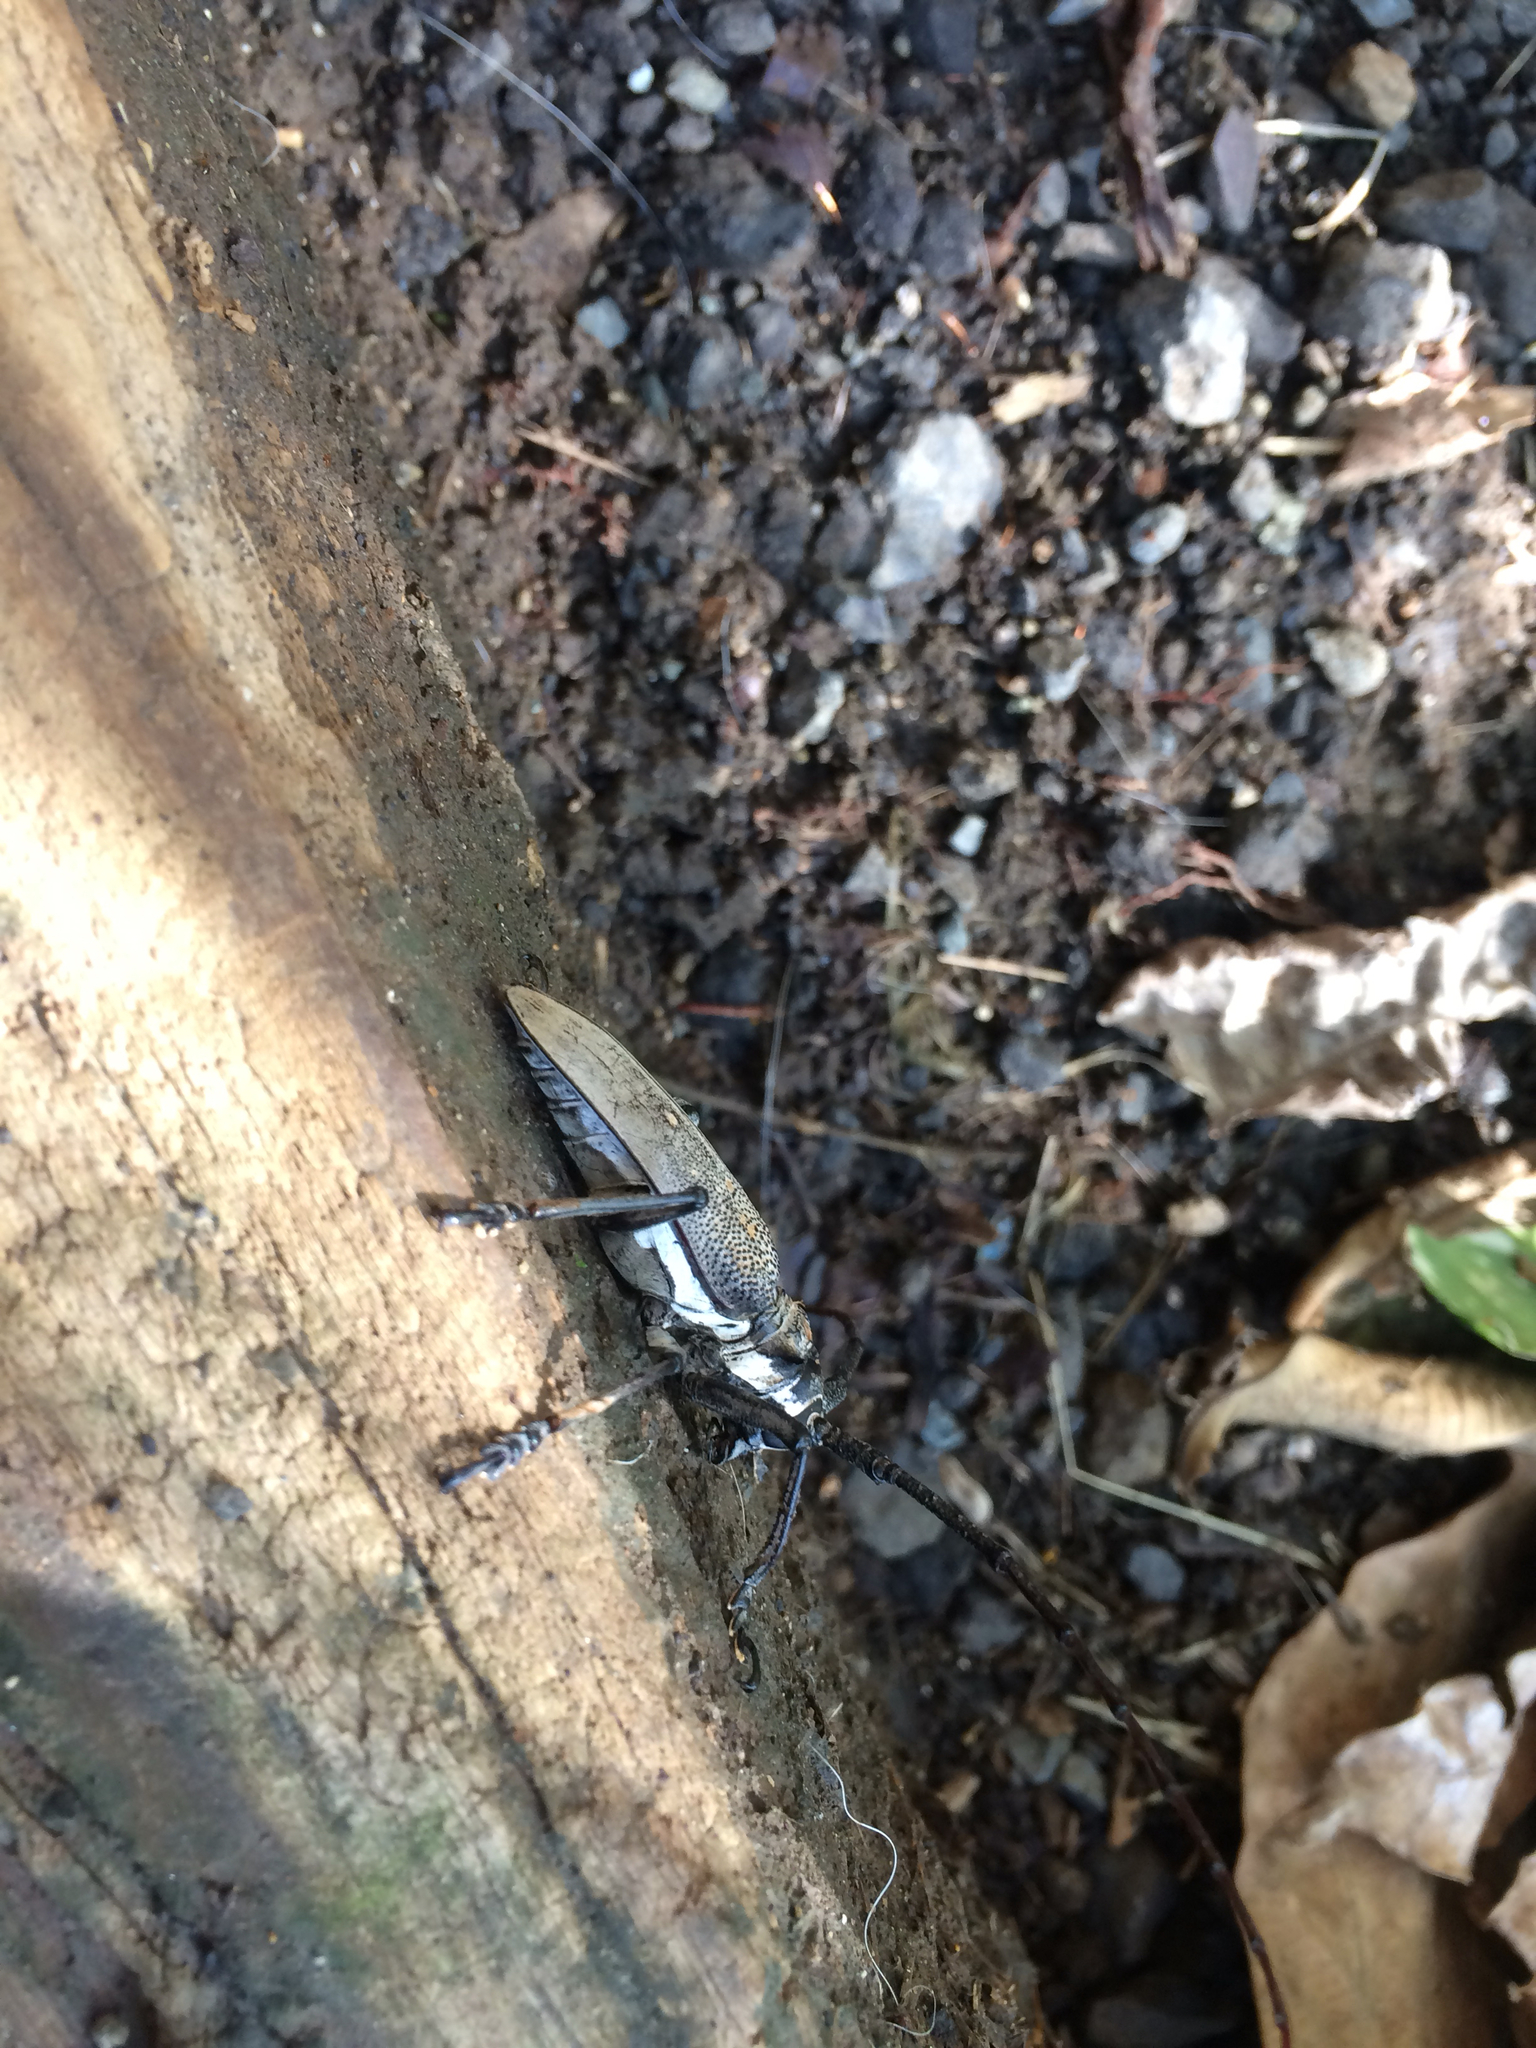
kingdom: Animalia
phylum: Arthropoda
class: Insecta
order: Coleoptera
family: Cerambycidae
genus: Batocera
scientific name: Batocera rufomaculata
